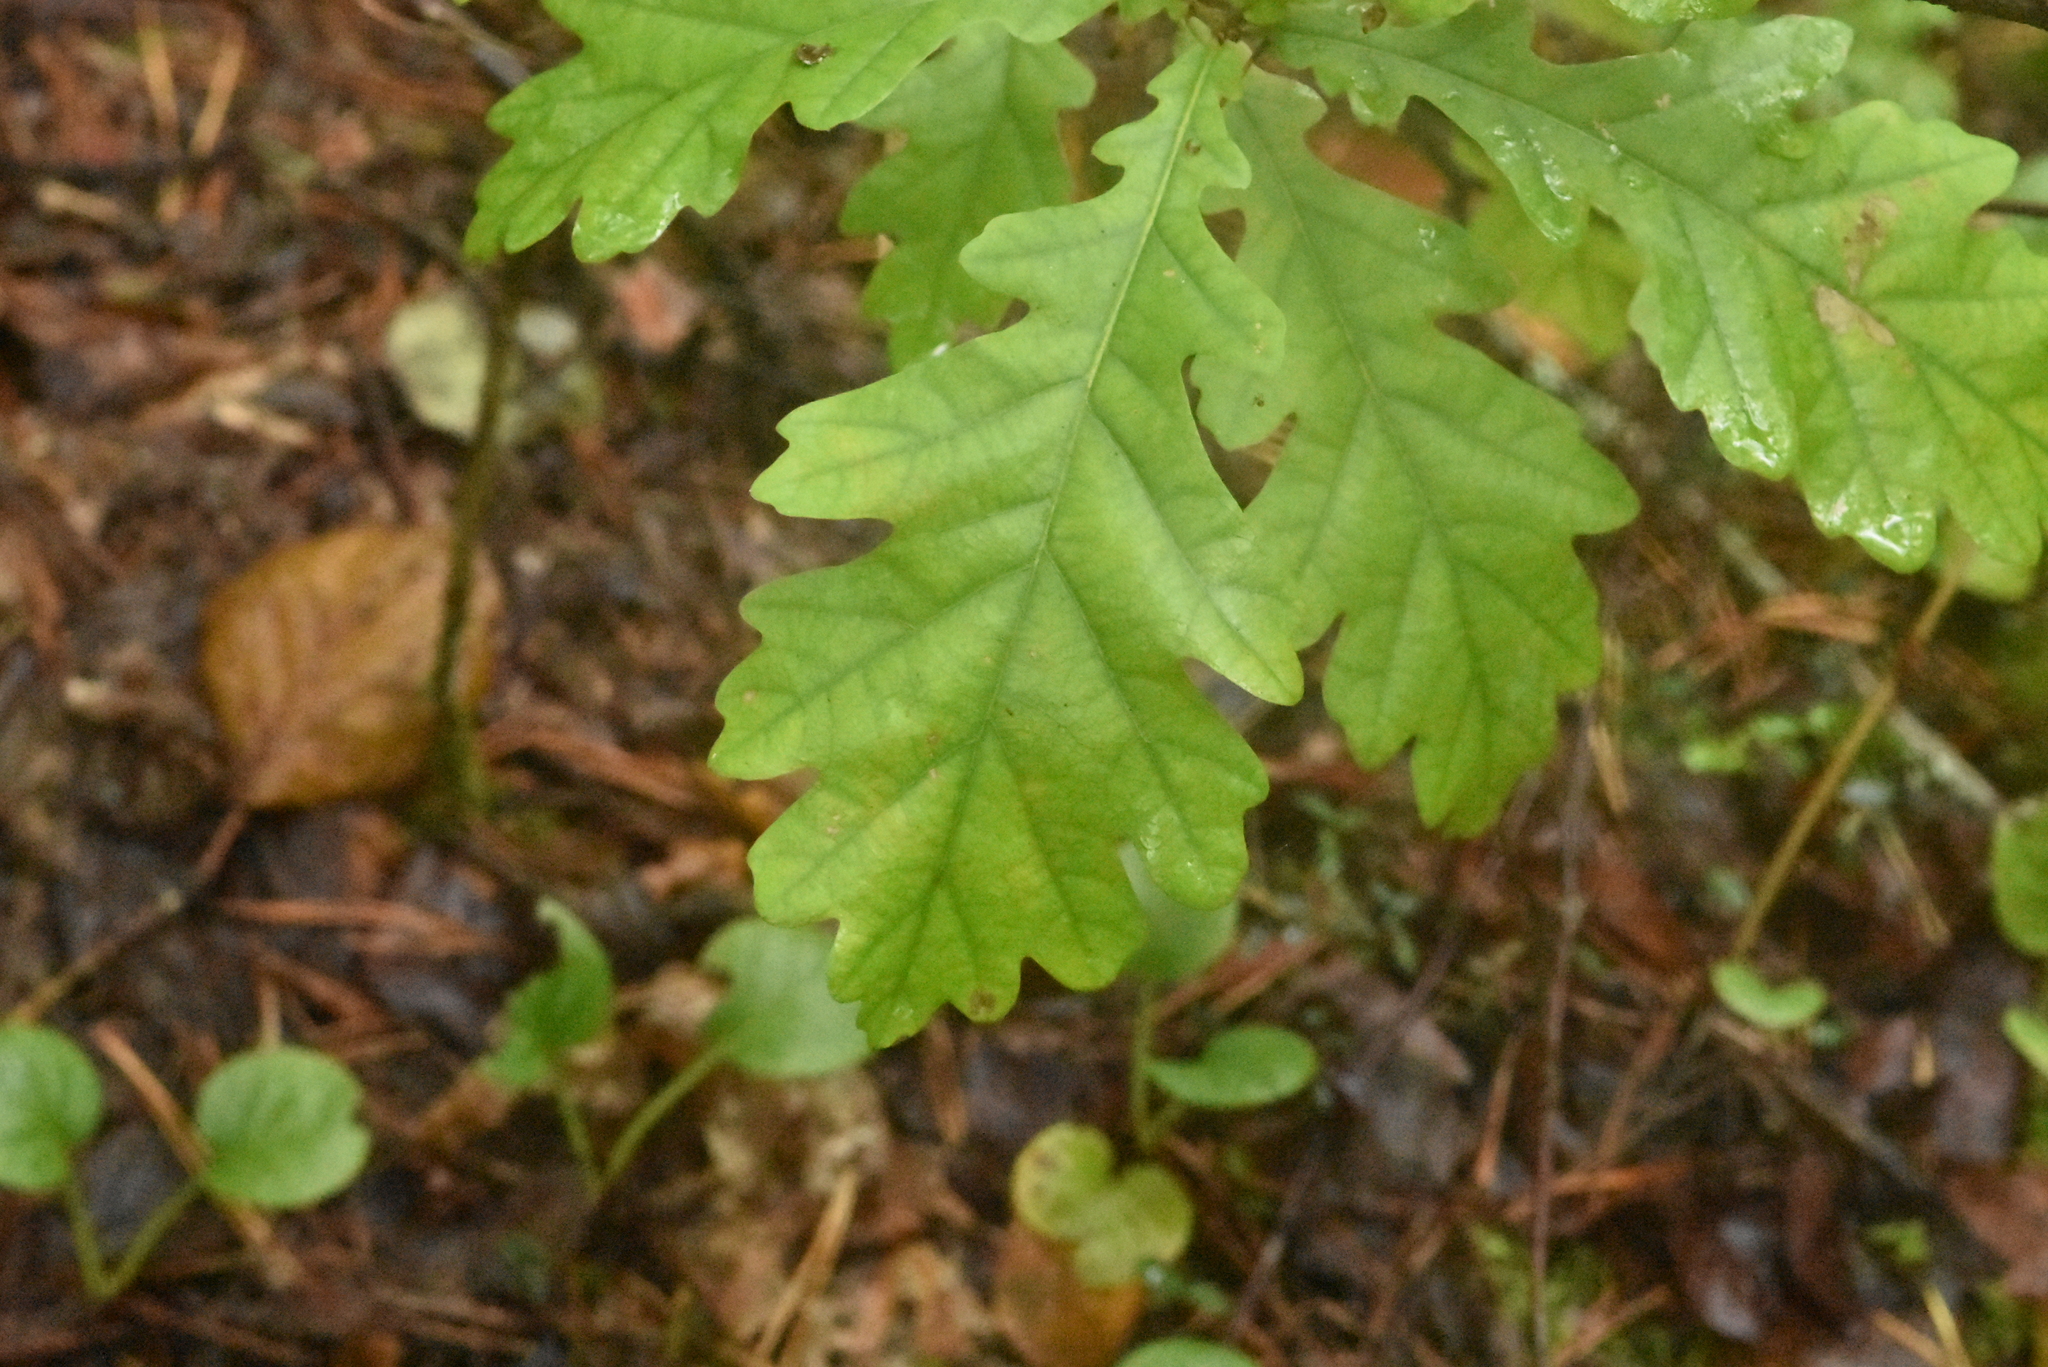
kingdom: Plantae
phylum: Tracheophyta
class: Magnoliopsida
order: Fagales
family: Fagaceae
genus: Quercus
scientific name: Quercus robur
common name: Pedunculate oak
